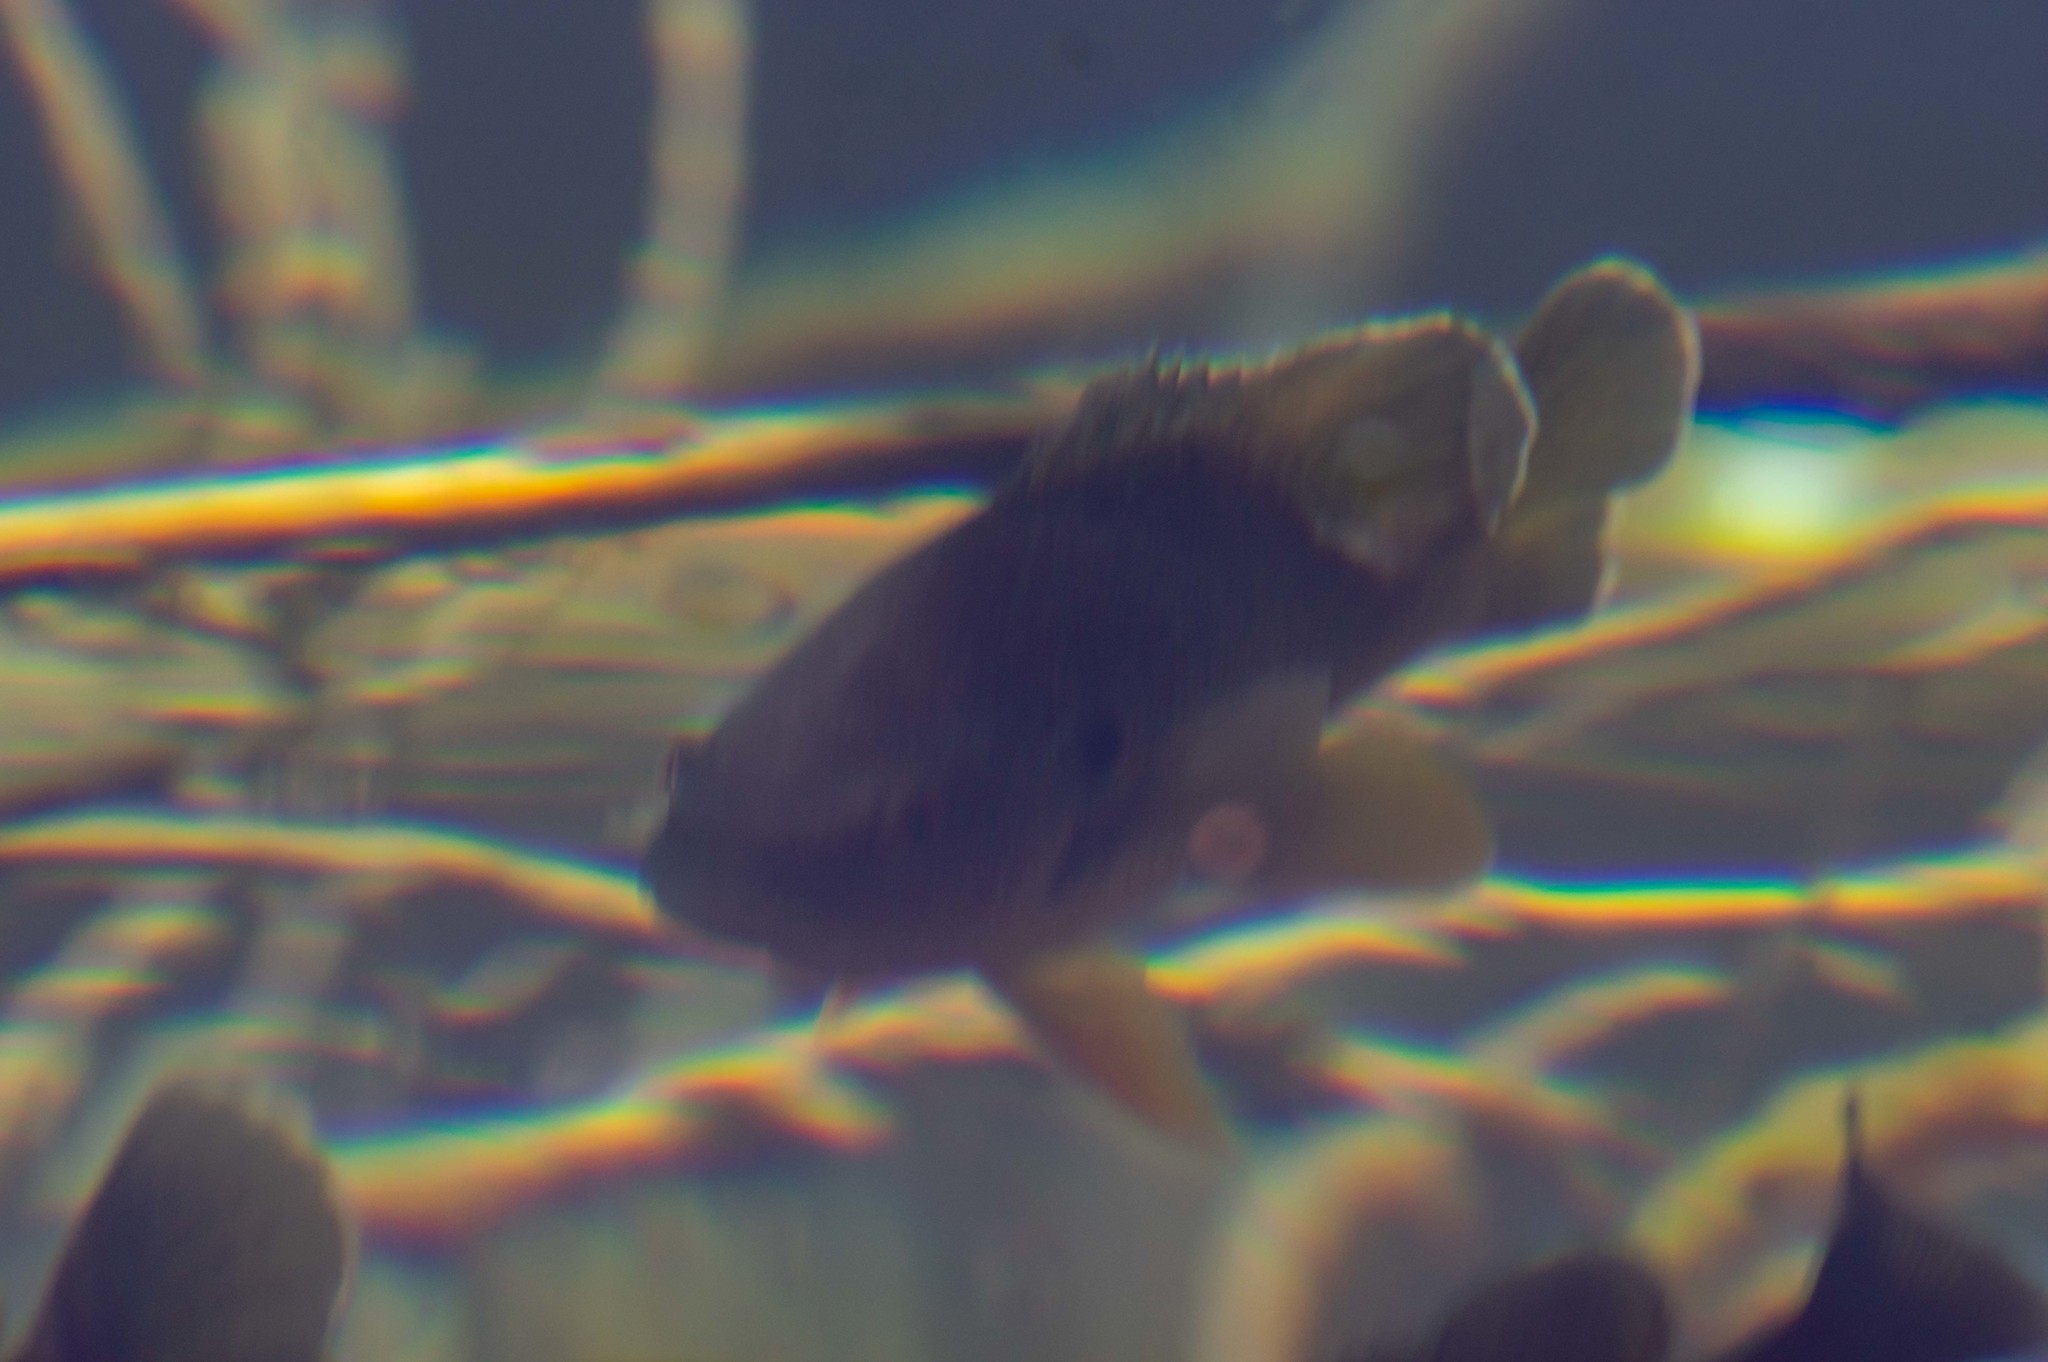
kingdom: Animalia
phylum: Chordata
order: Perciformes
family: Centrarchidae
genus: Lepomis
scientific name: Lepomis gibbosus
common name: Pumpkinseed
